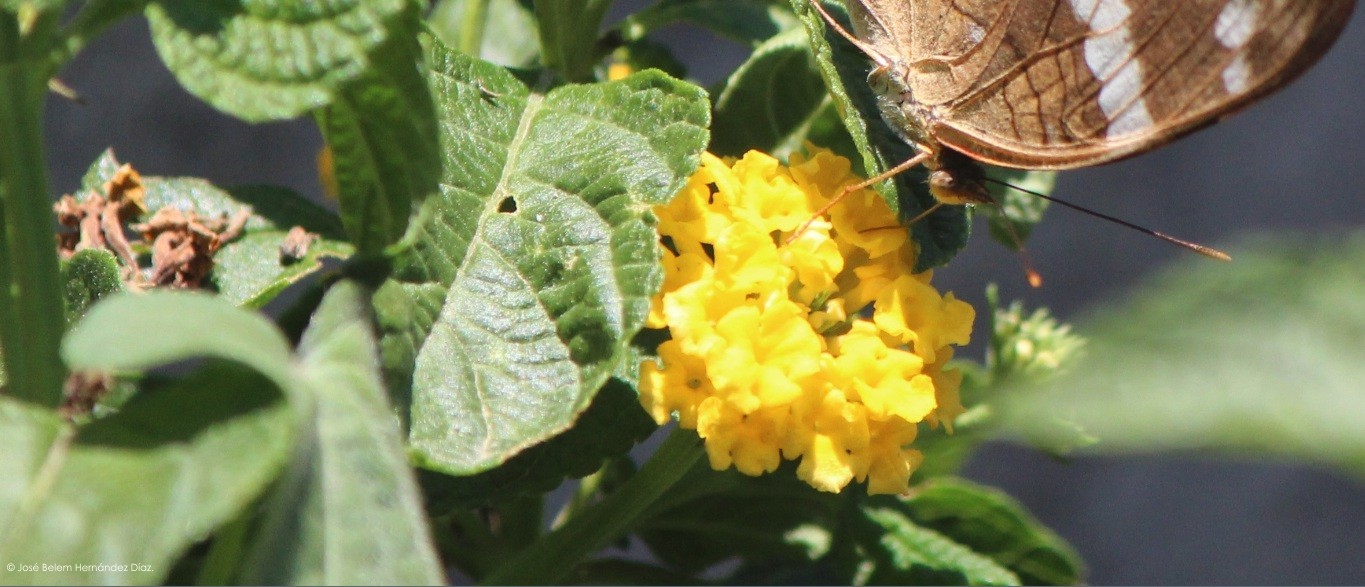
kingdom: Plantae
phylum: Tracheophyta
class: Magnoliopsida
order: Lamiales
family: Verbenaceae
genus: Lantana
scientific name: Lantana polyacantha
